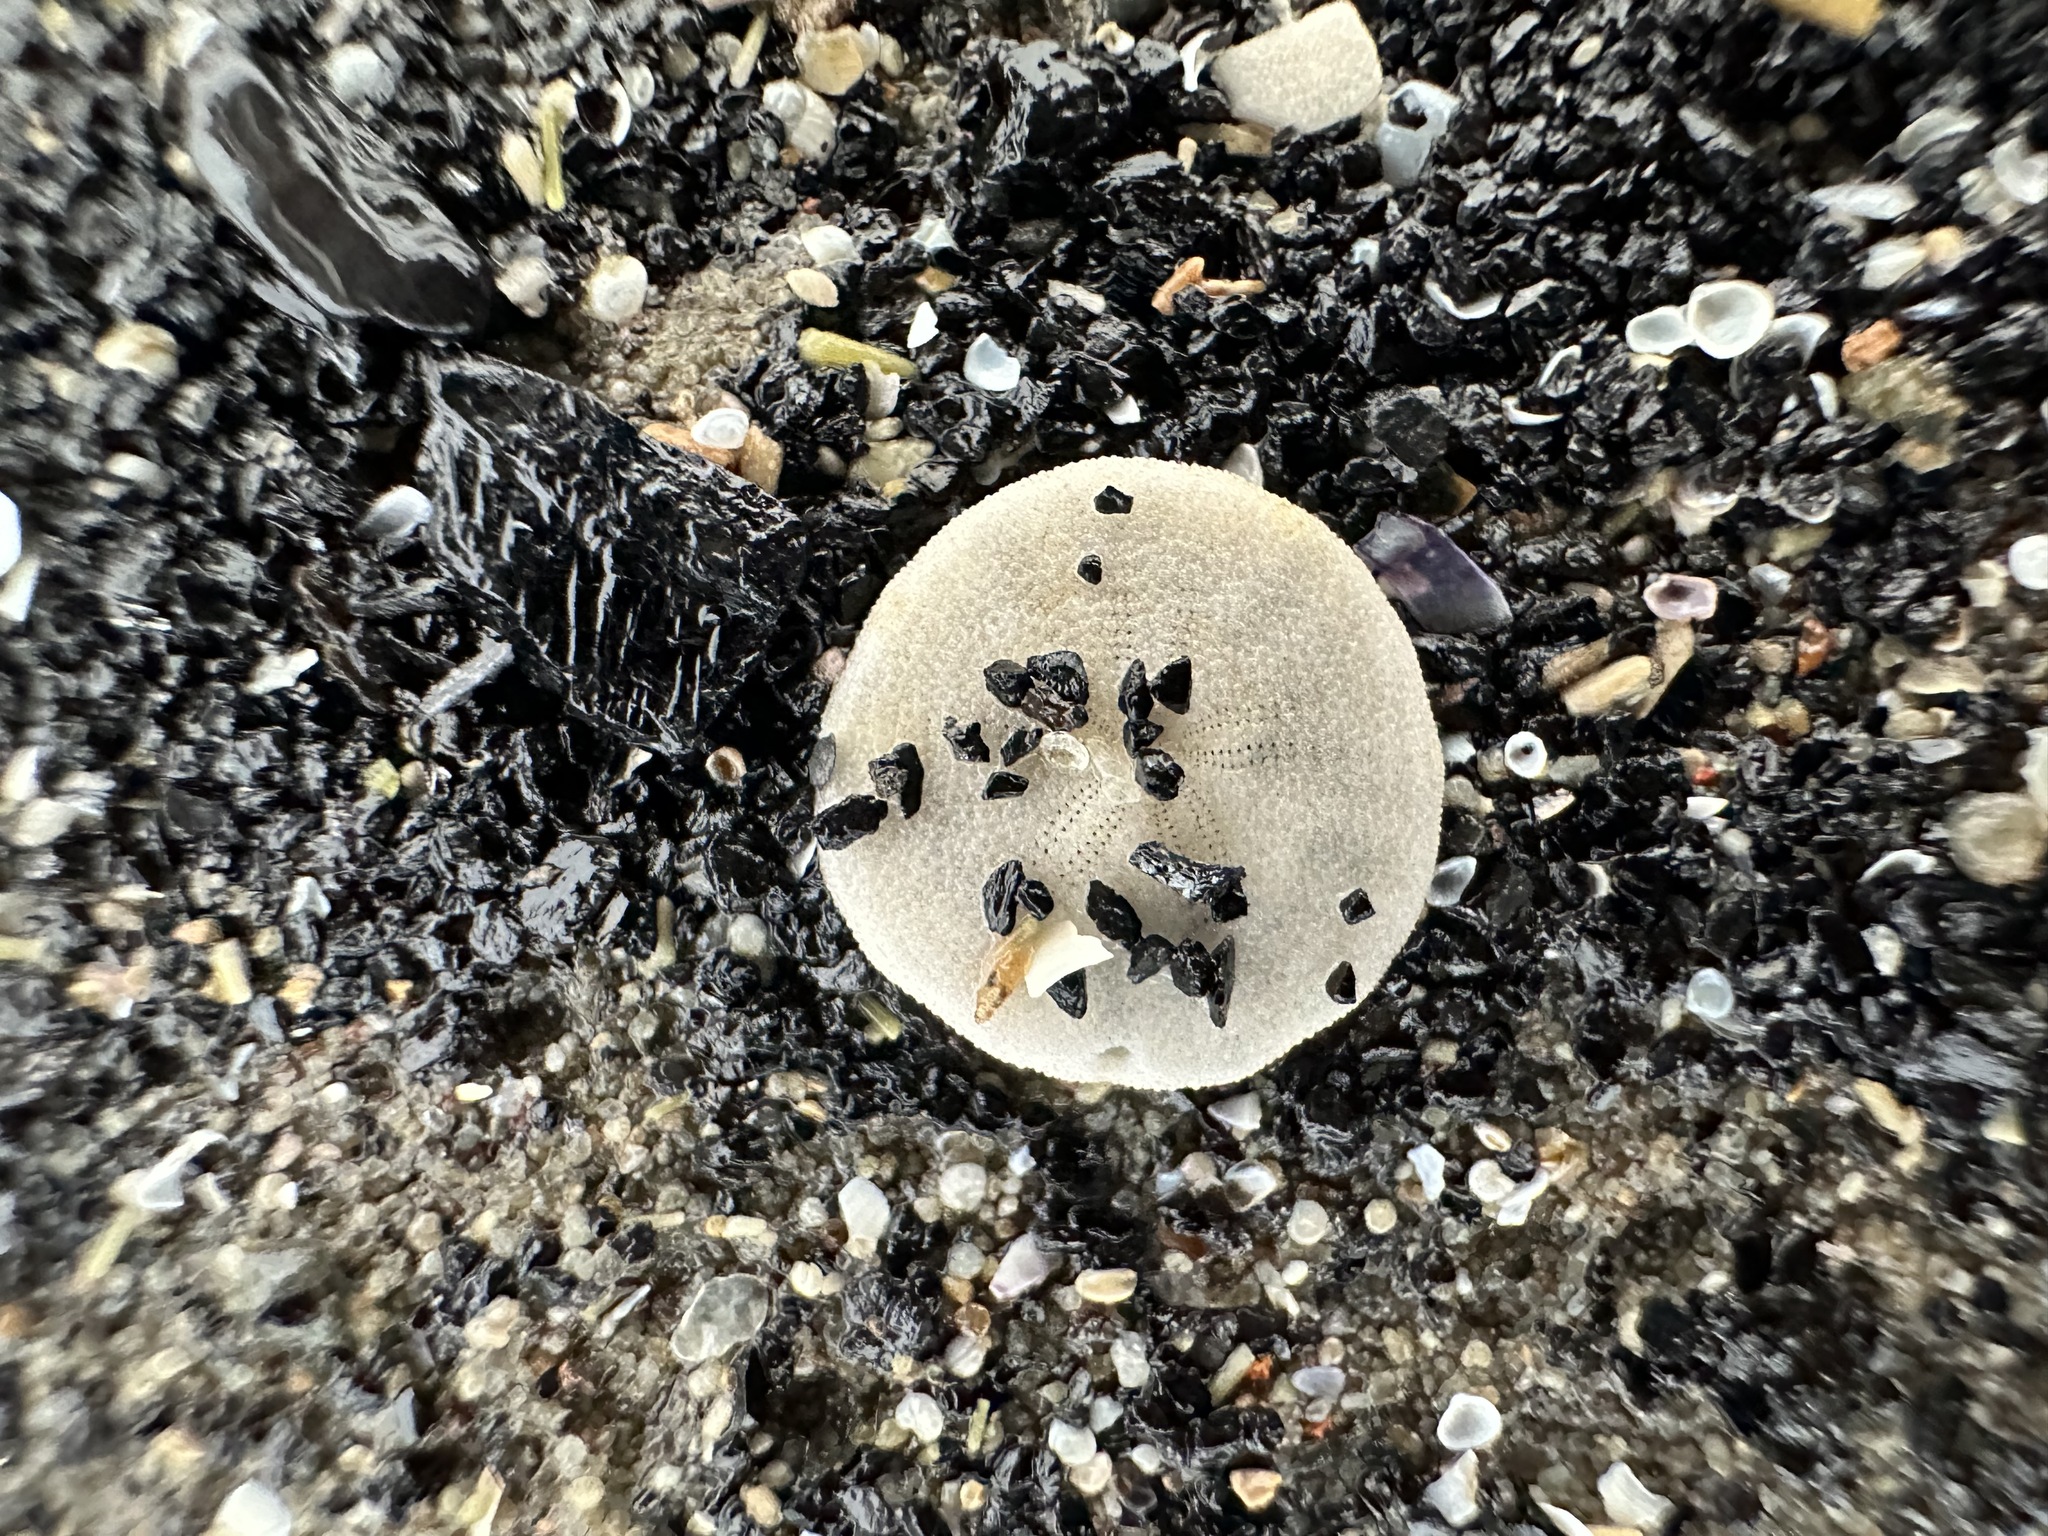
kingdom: Animalia
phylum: Echinodermata
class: Echinoidea
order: Echinolampadacea
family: Echinarachniidae
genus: Echinarachnius
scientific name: Echinarachnius parma
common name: Common sand dollar
